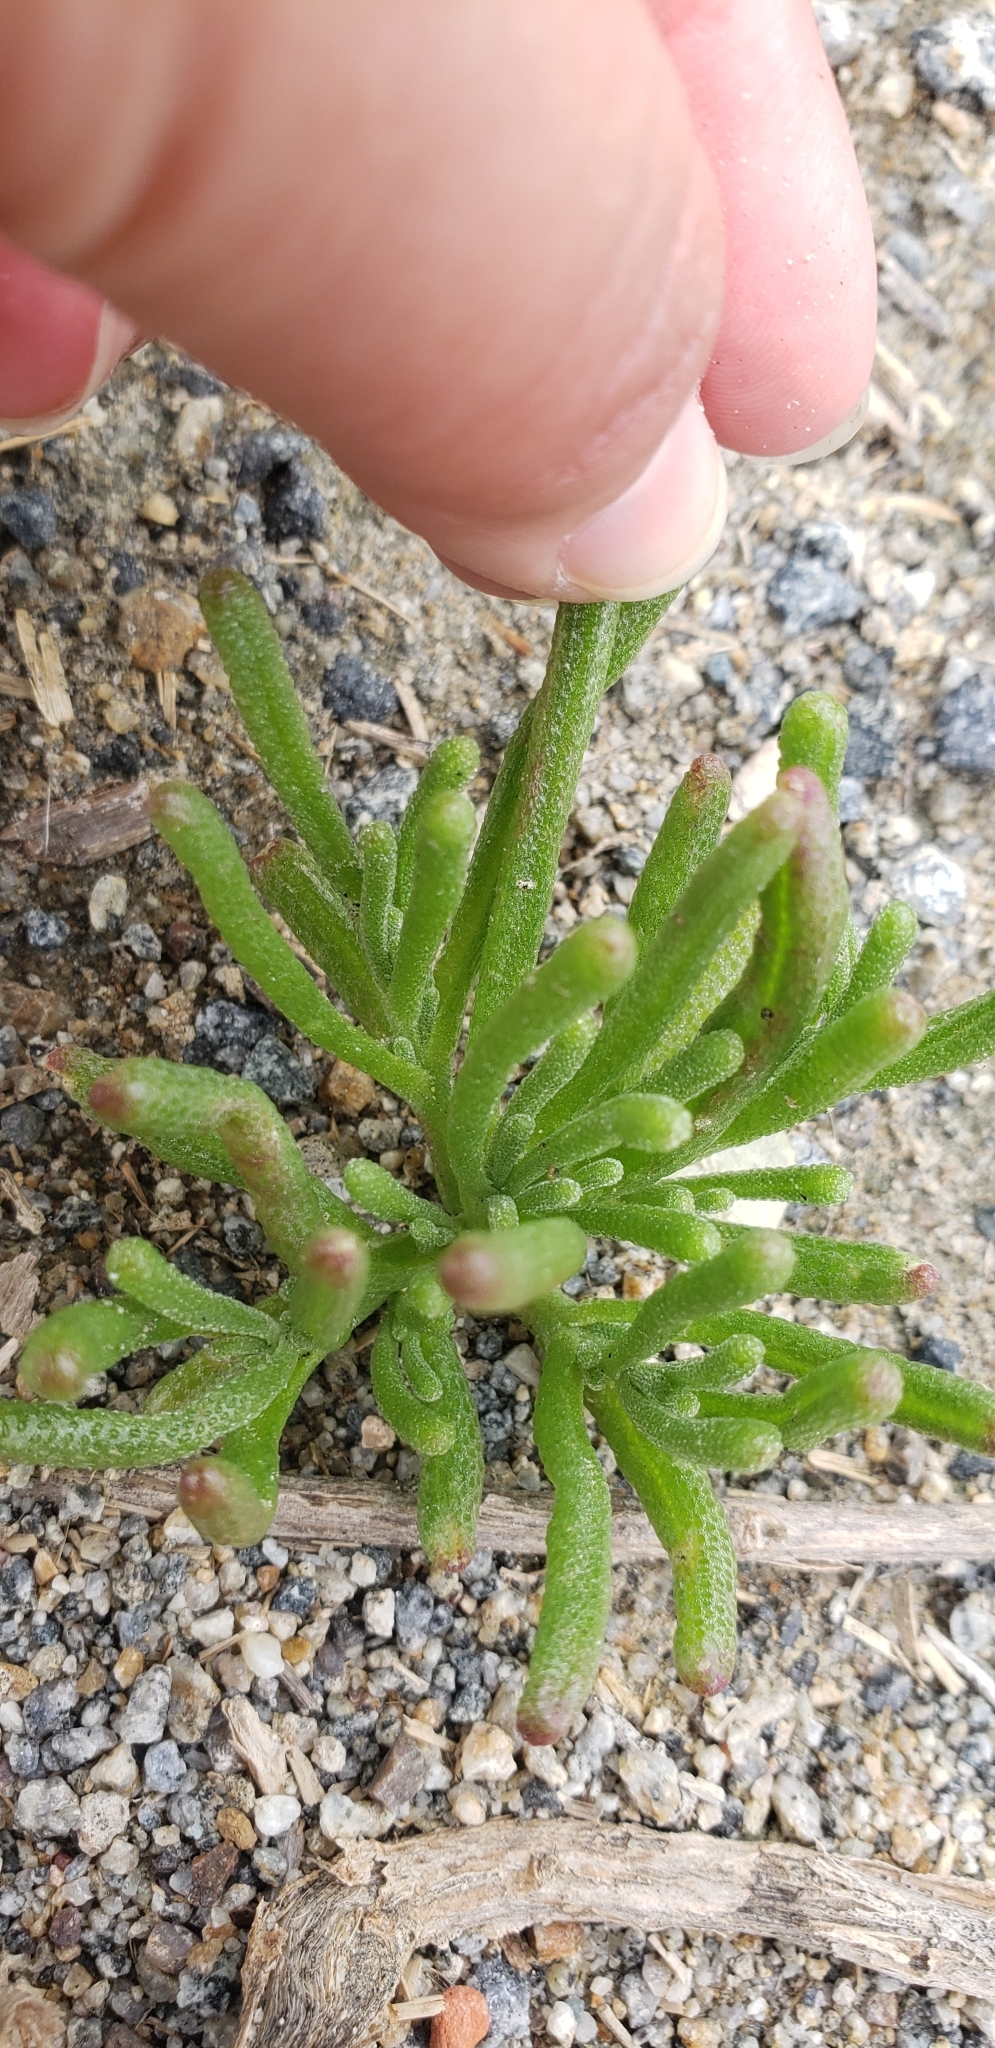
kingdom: Plantae
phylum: Tracheophyta
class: Magnoliopsida
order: Caryophyllales
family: Aizoaceae
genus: Mesembryanthemum
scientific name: Mesembryanthemum nodiflorum
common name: Slenderleaf iceplant
